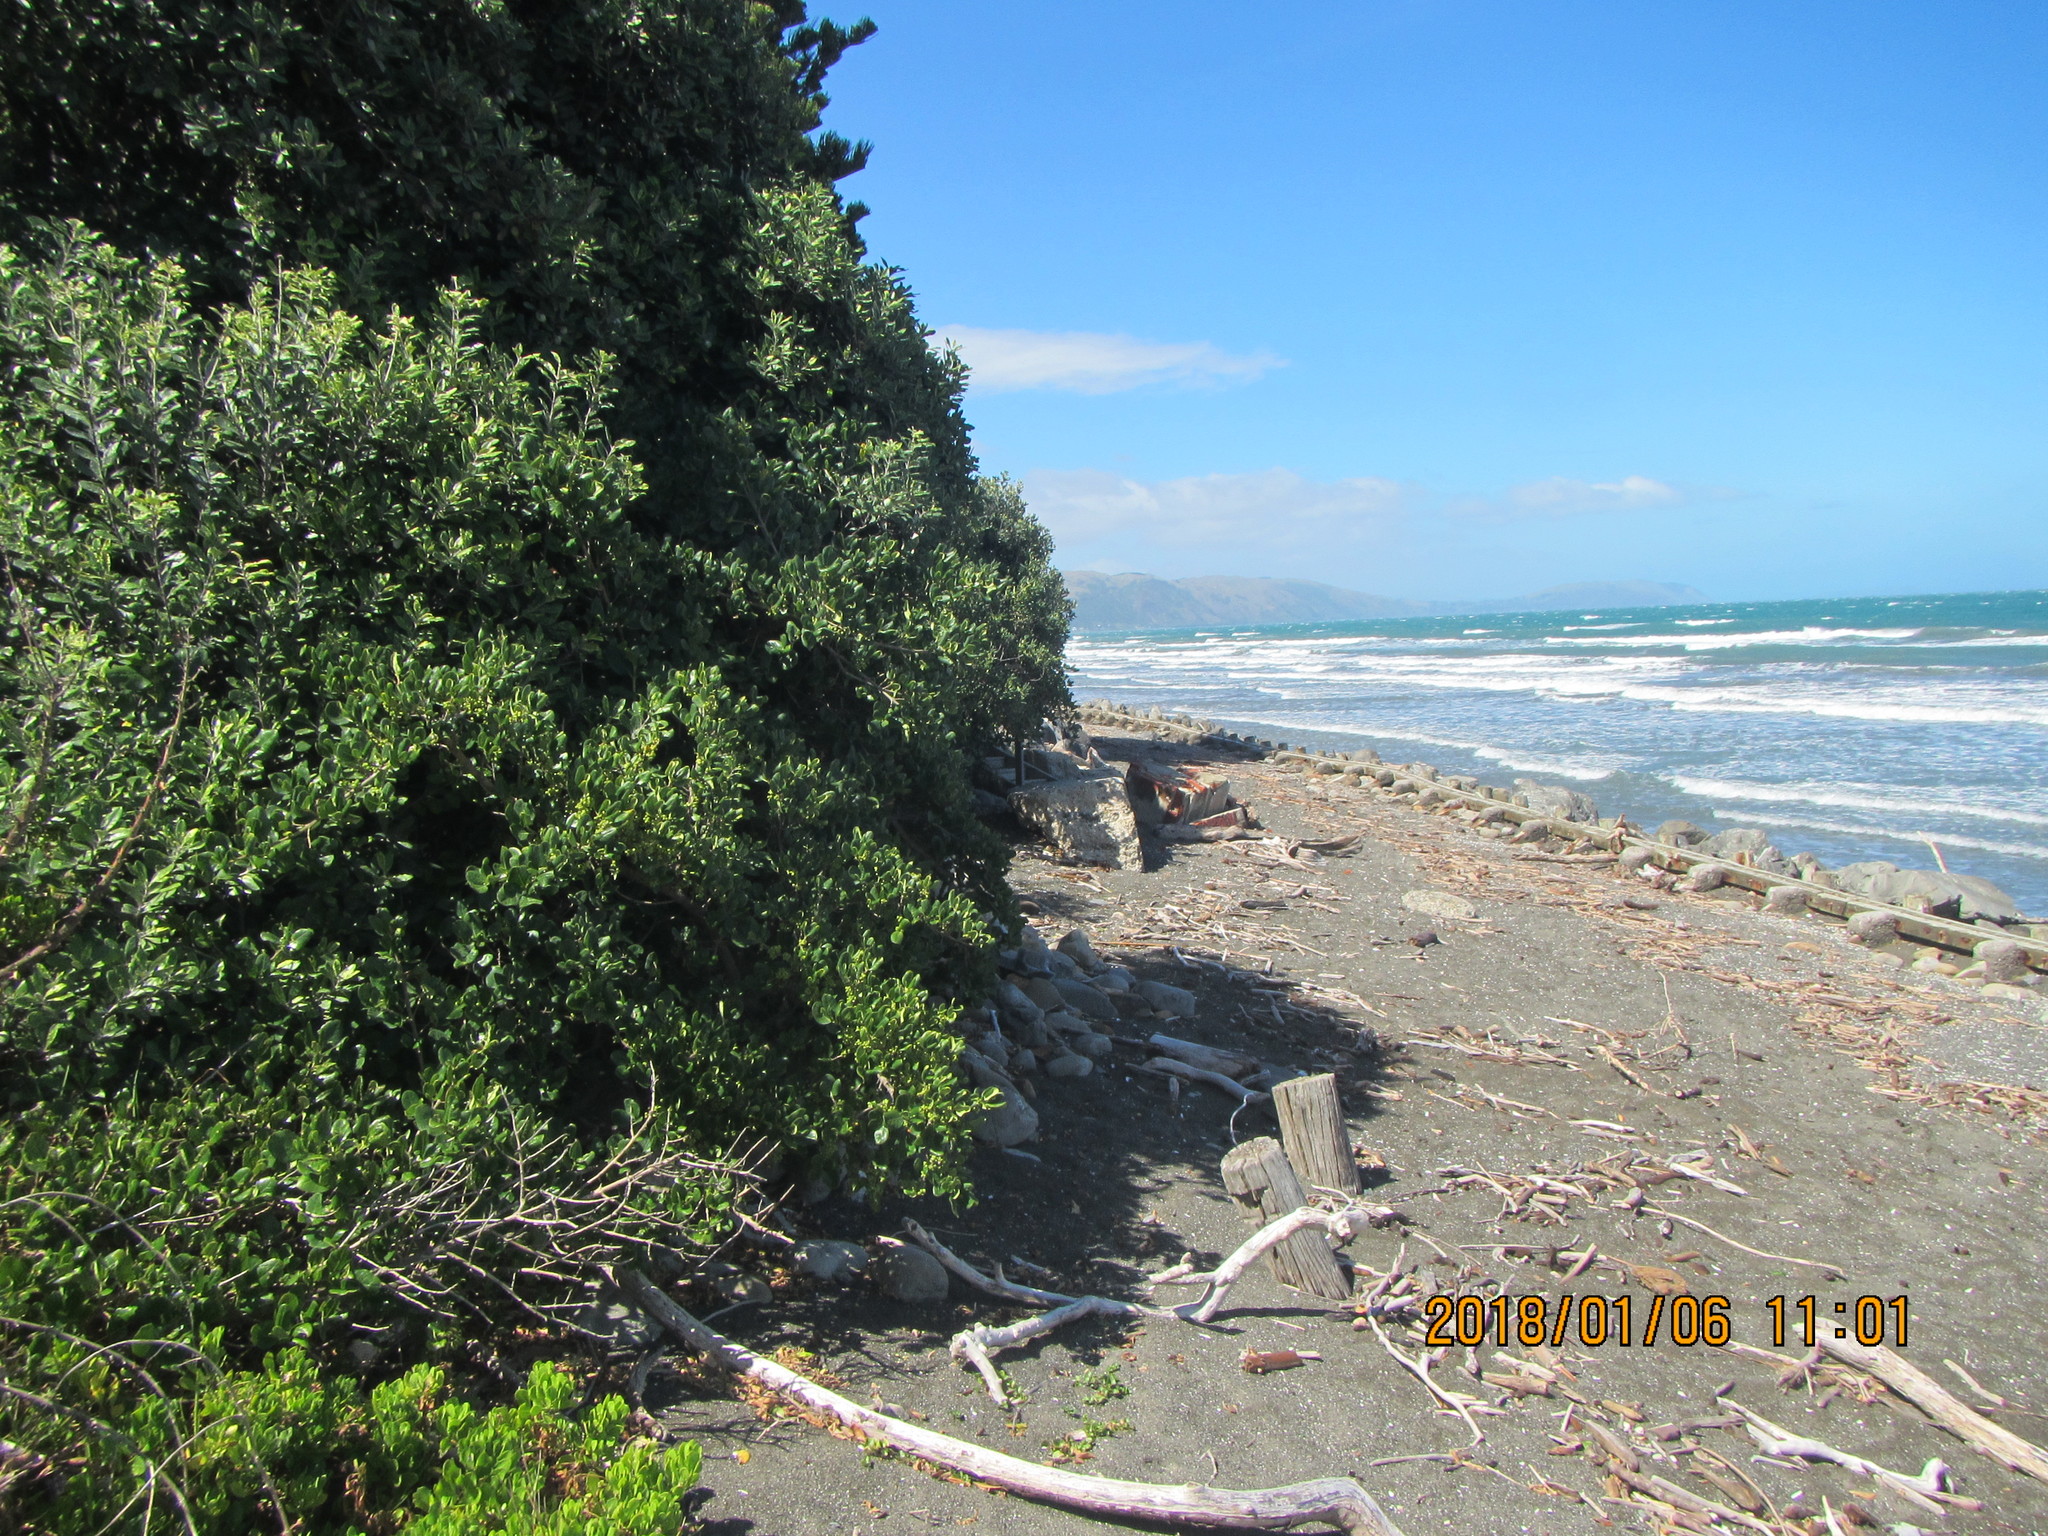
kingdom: Plantae
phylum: Tracheophyta
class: Magnoliopsida
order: Gentianales
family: Rubiaceae
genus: Coprosma
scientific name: Coprosma repens
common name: Tree bedstraw
